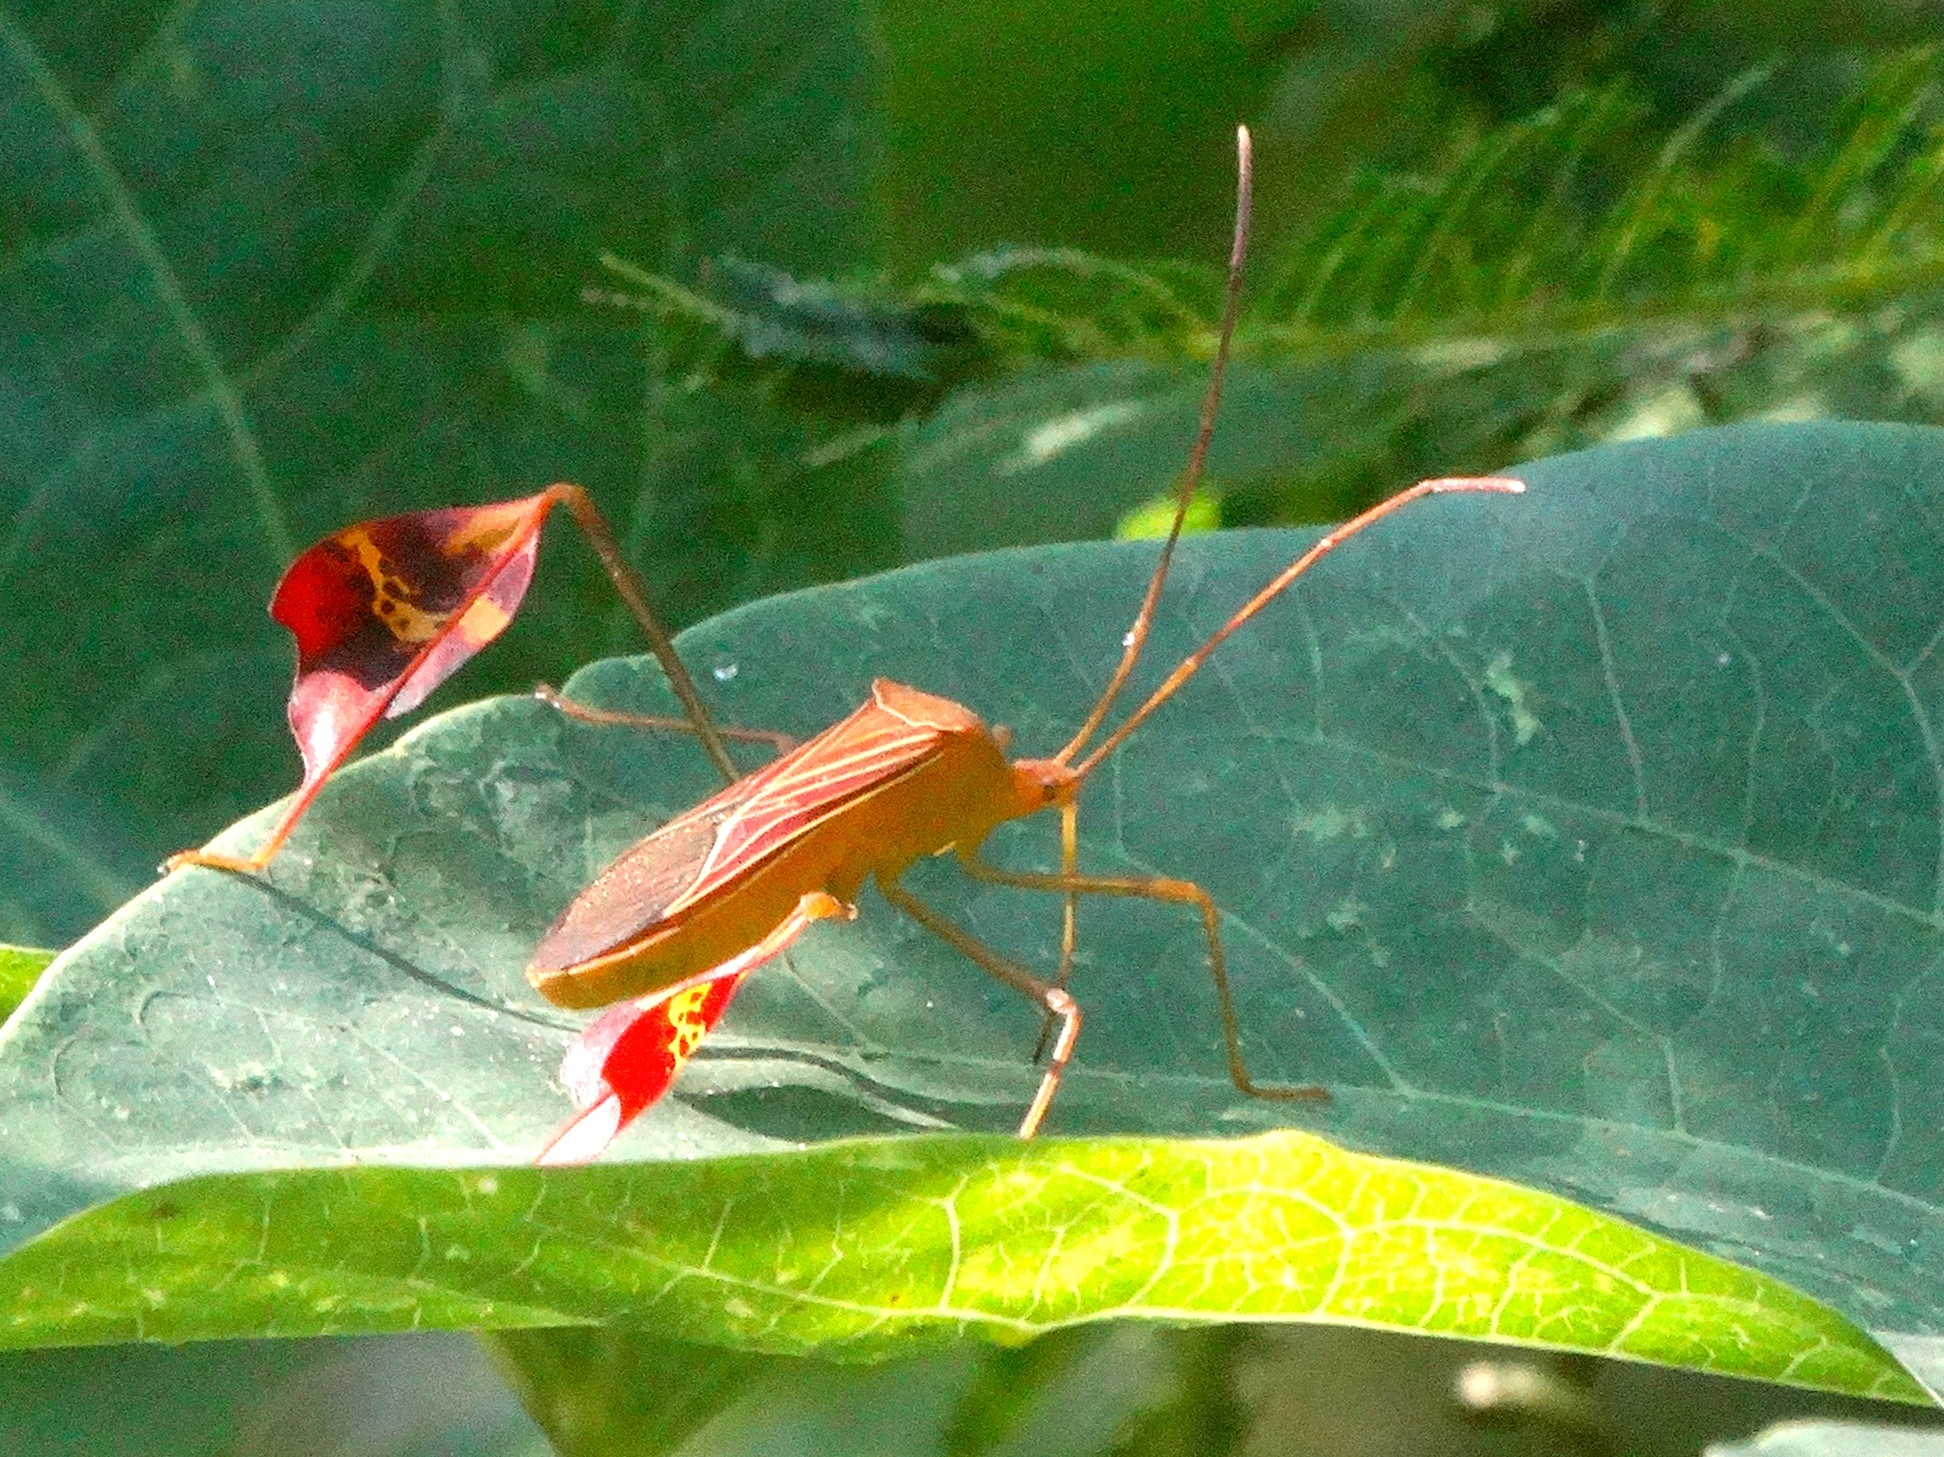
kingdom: Animalia
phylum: Arthropoda
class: Insecta
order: Hemiptera
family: Coreidae
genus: Bitta
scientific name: Bitta
